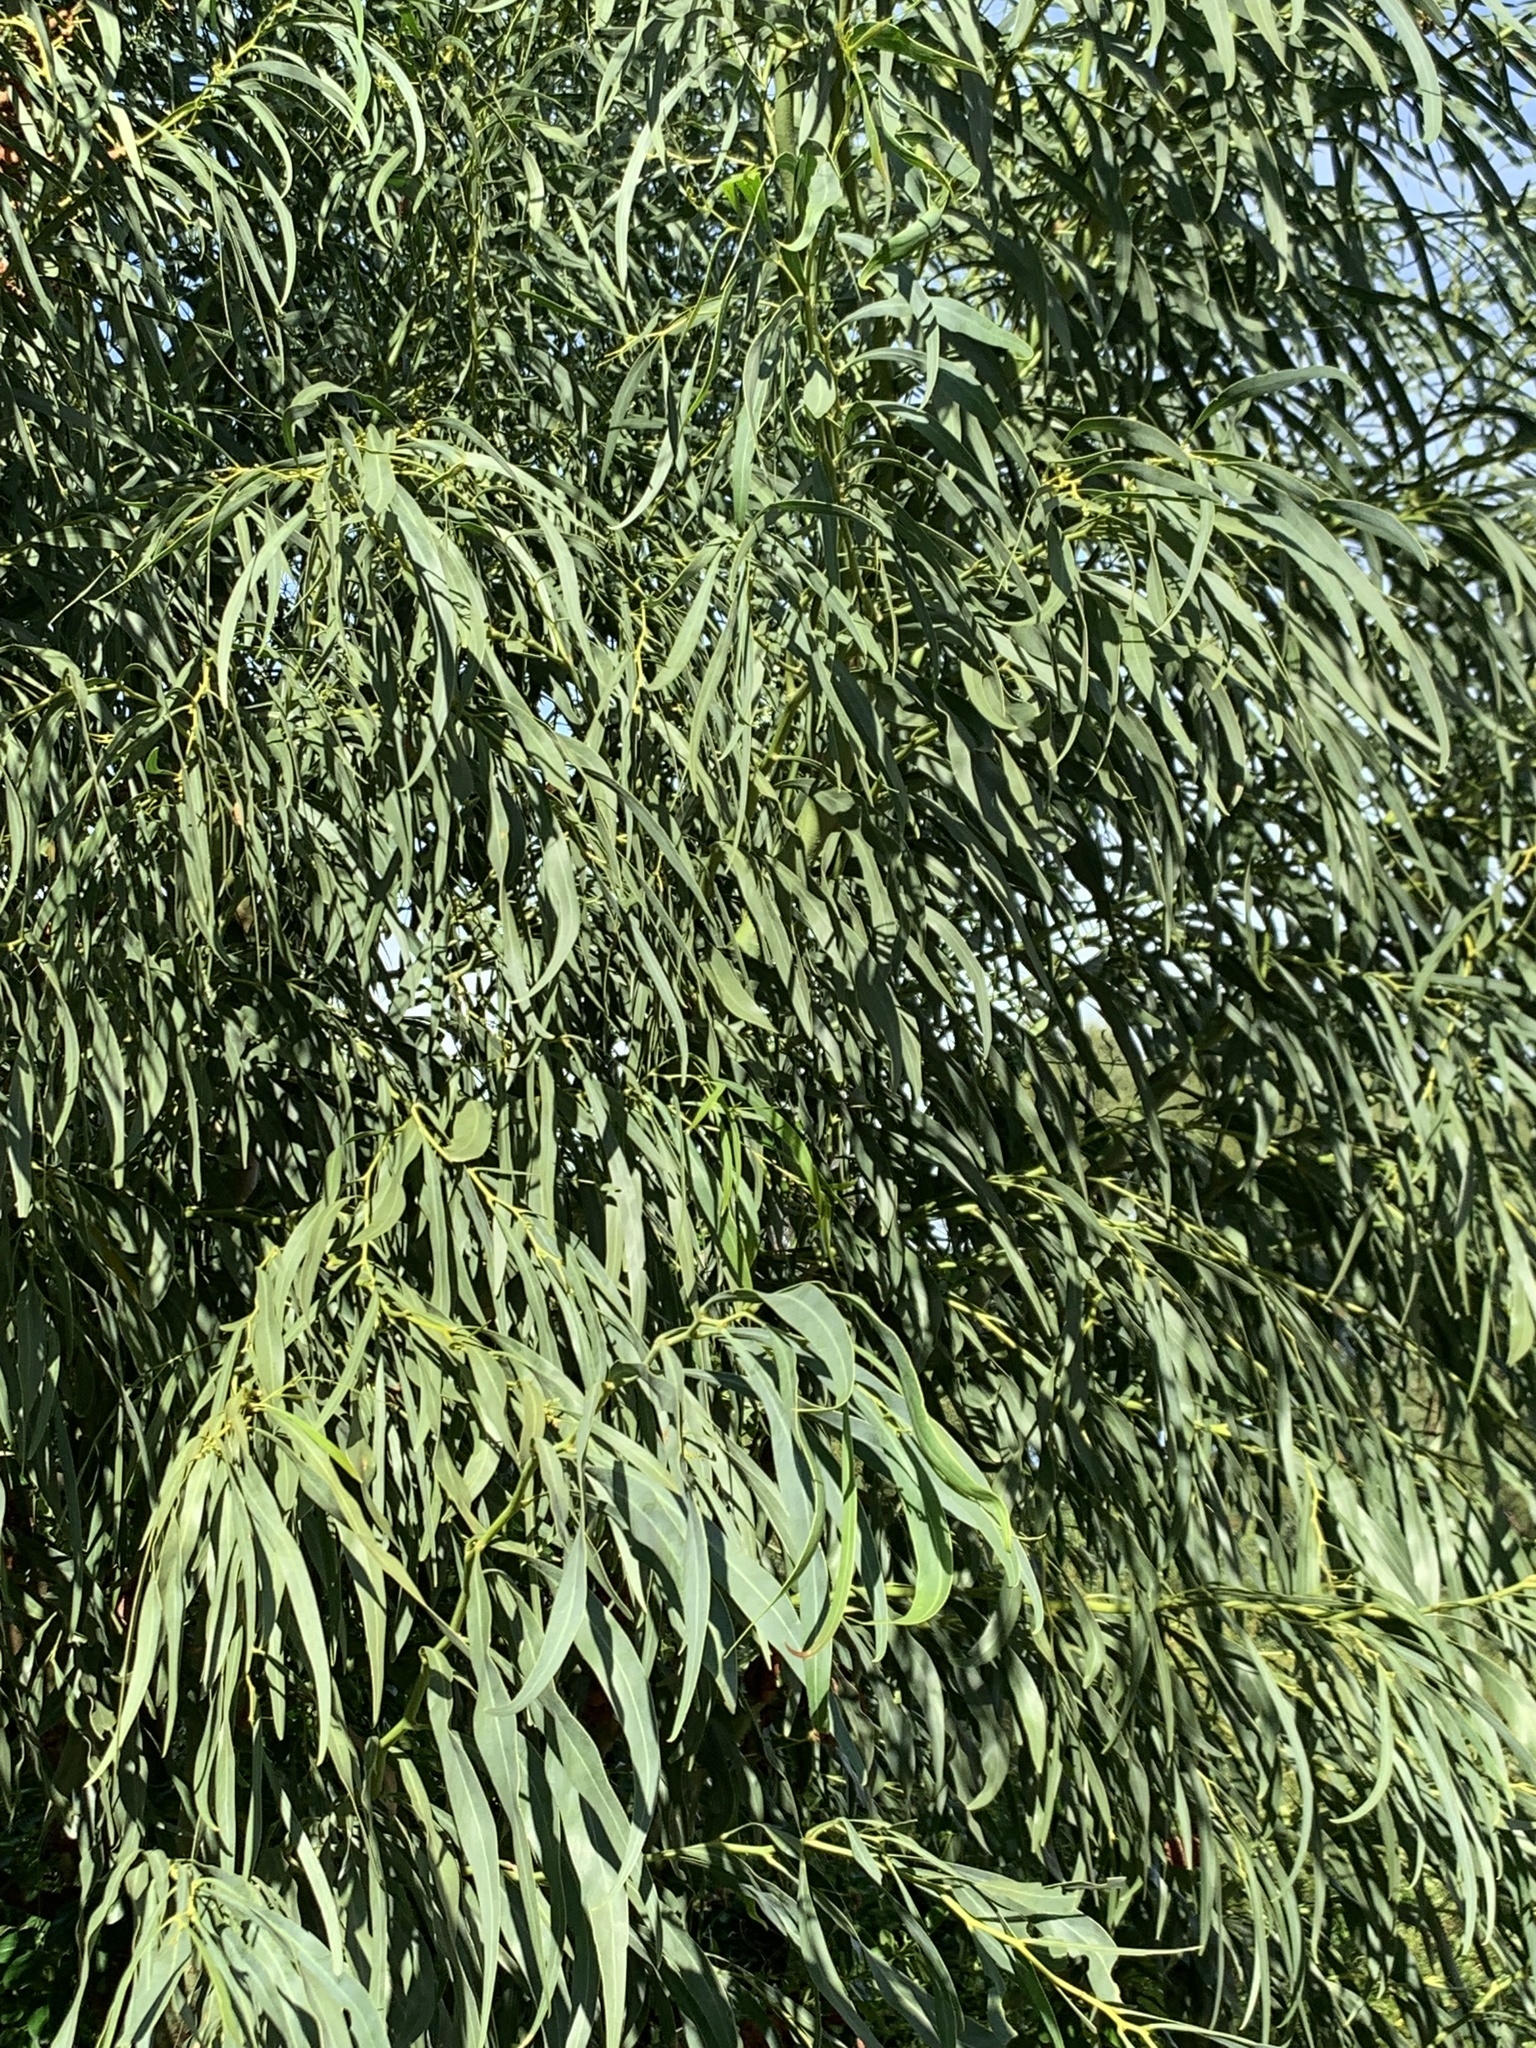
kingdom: Plantae
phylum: Tracheophyta
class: Magnoliopsida
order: Fabales
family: Fabaceae
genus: Acacia
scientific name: Acacia saligna
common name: Orange wattle
